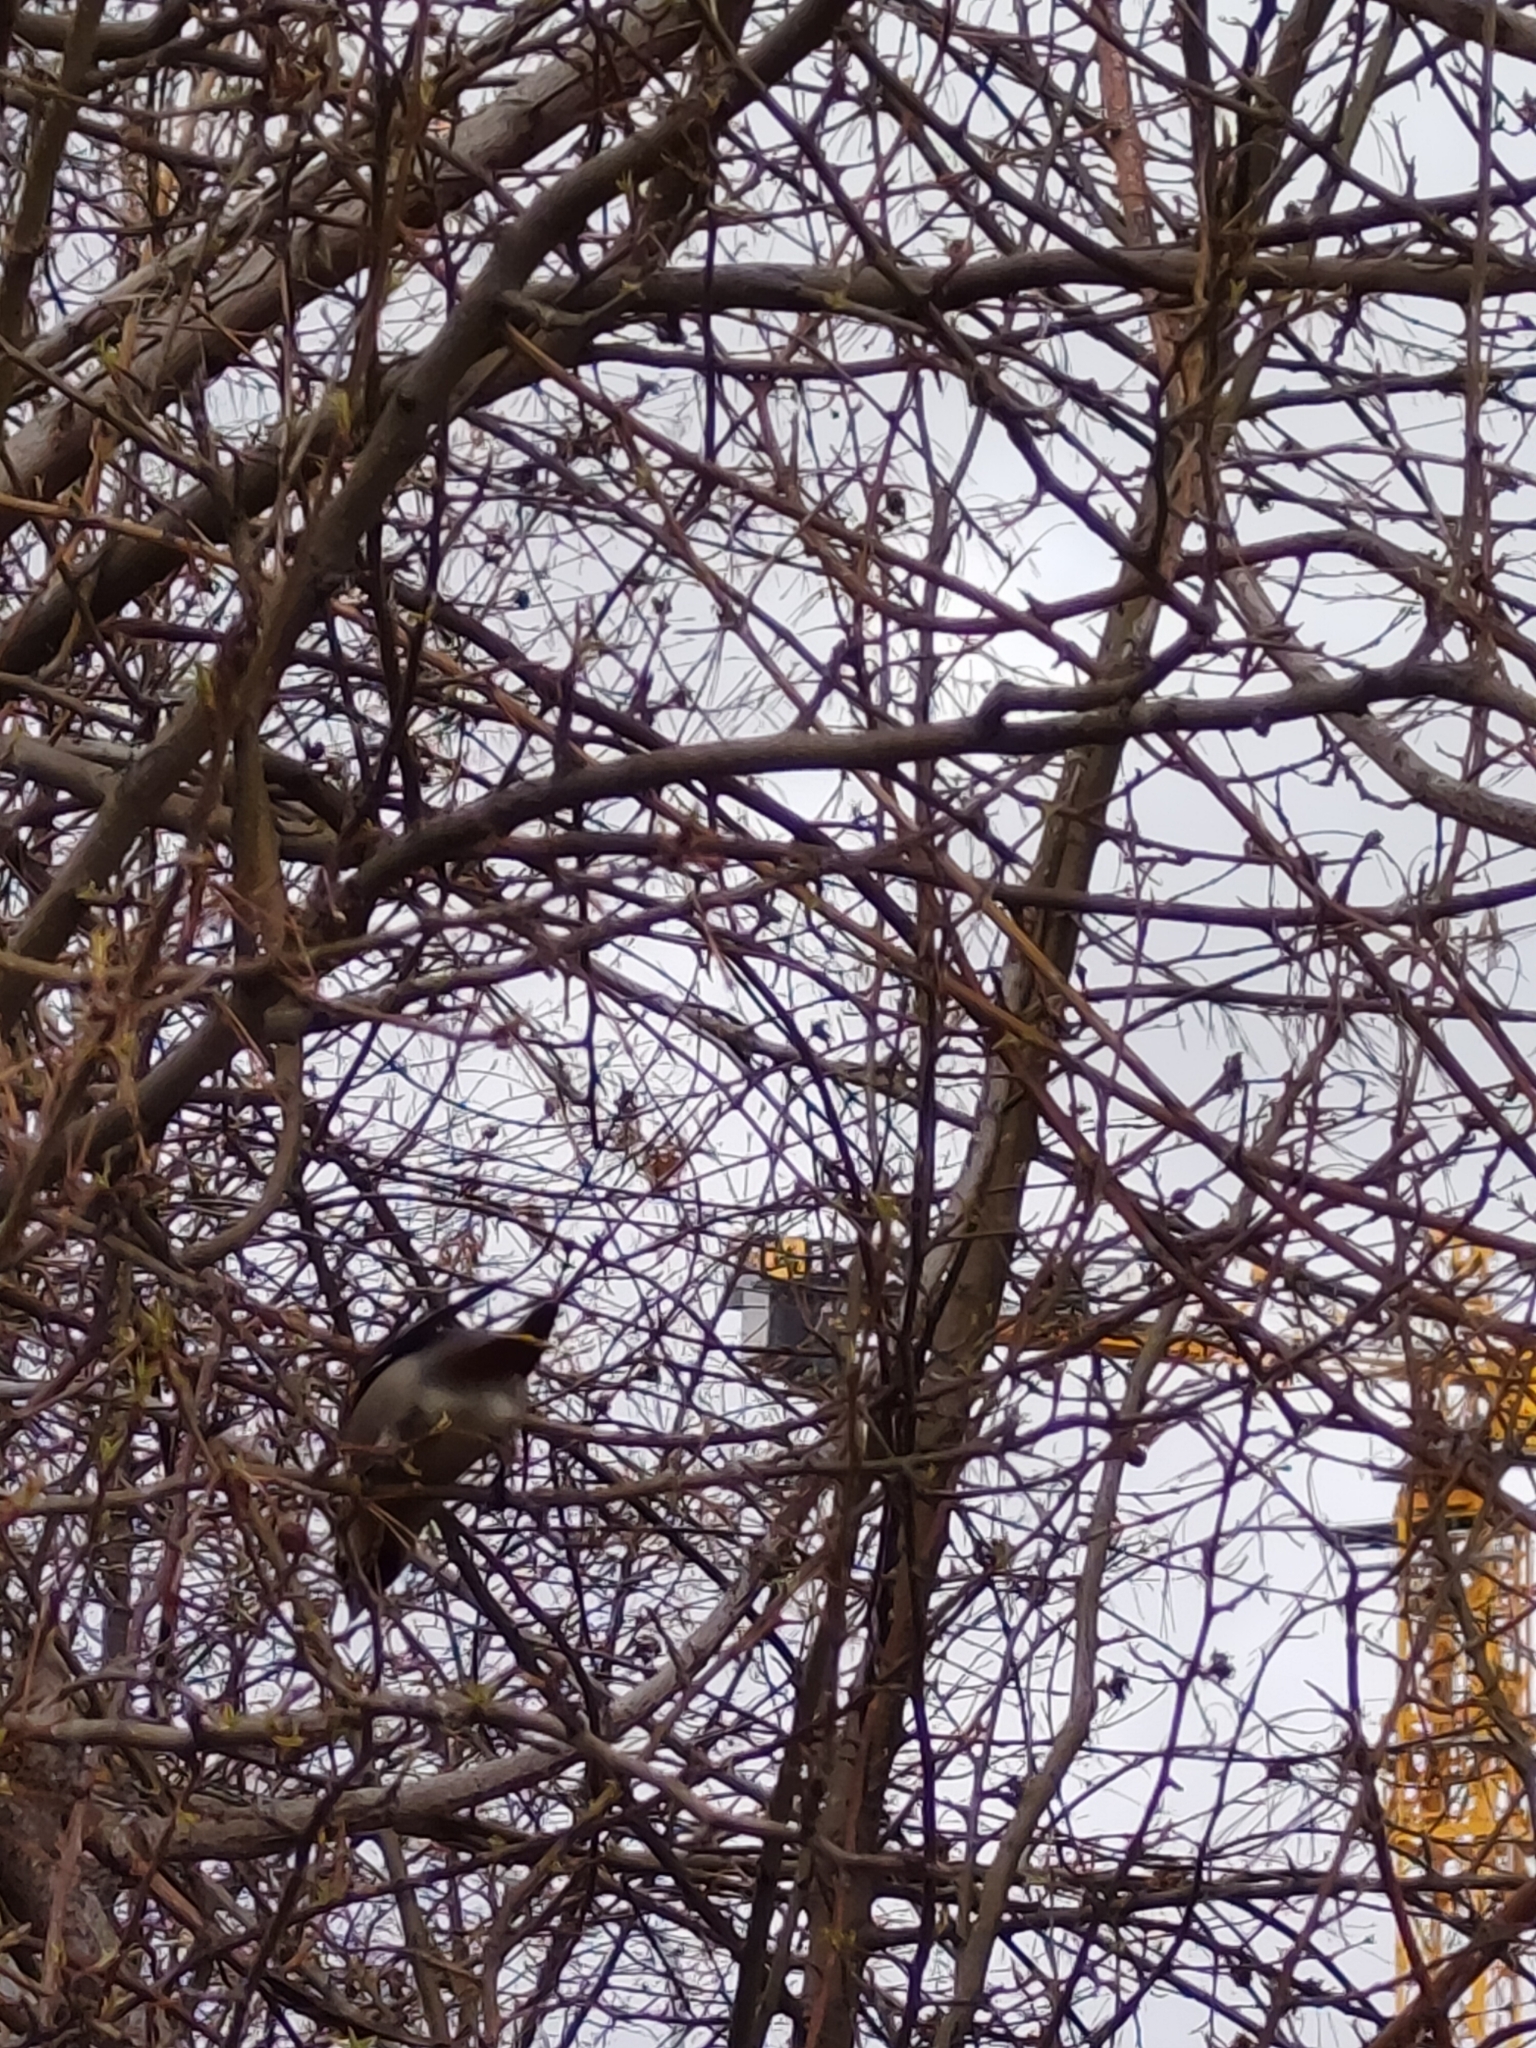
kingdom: Animalia
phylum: Chordata
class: Aves
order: Passeriformes
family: Bombycillidae
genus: Bombycilla
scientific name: Bombycilla garrulus
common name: Bohemian waxwing
